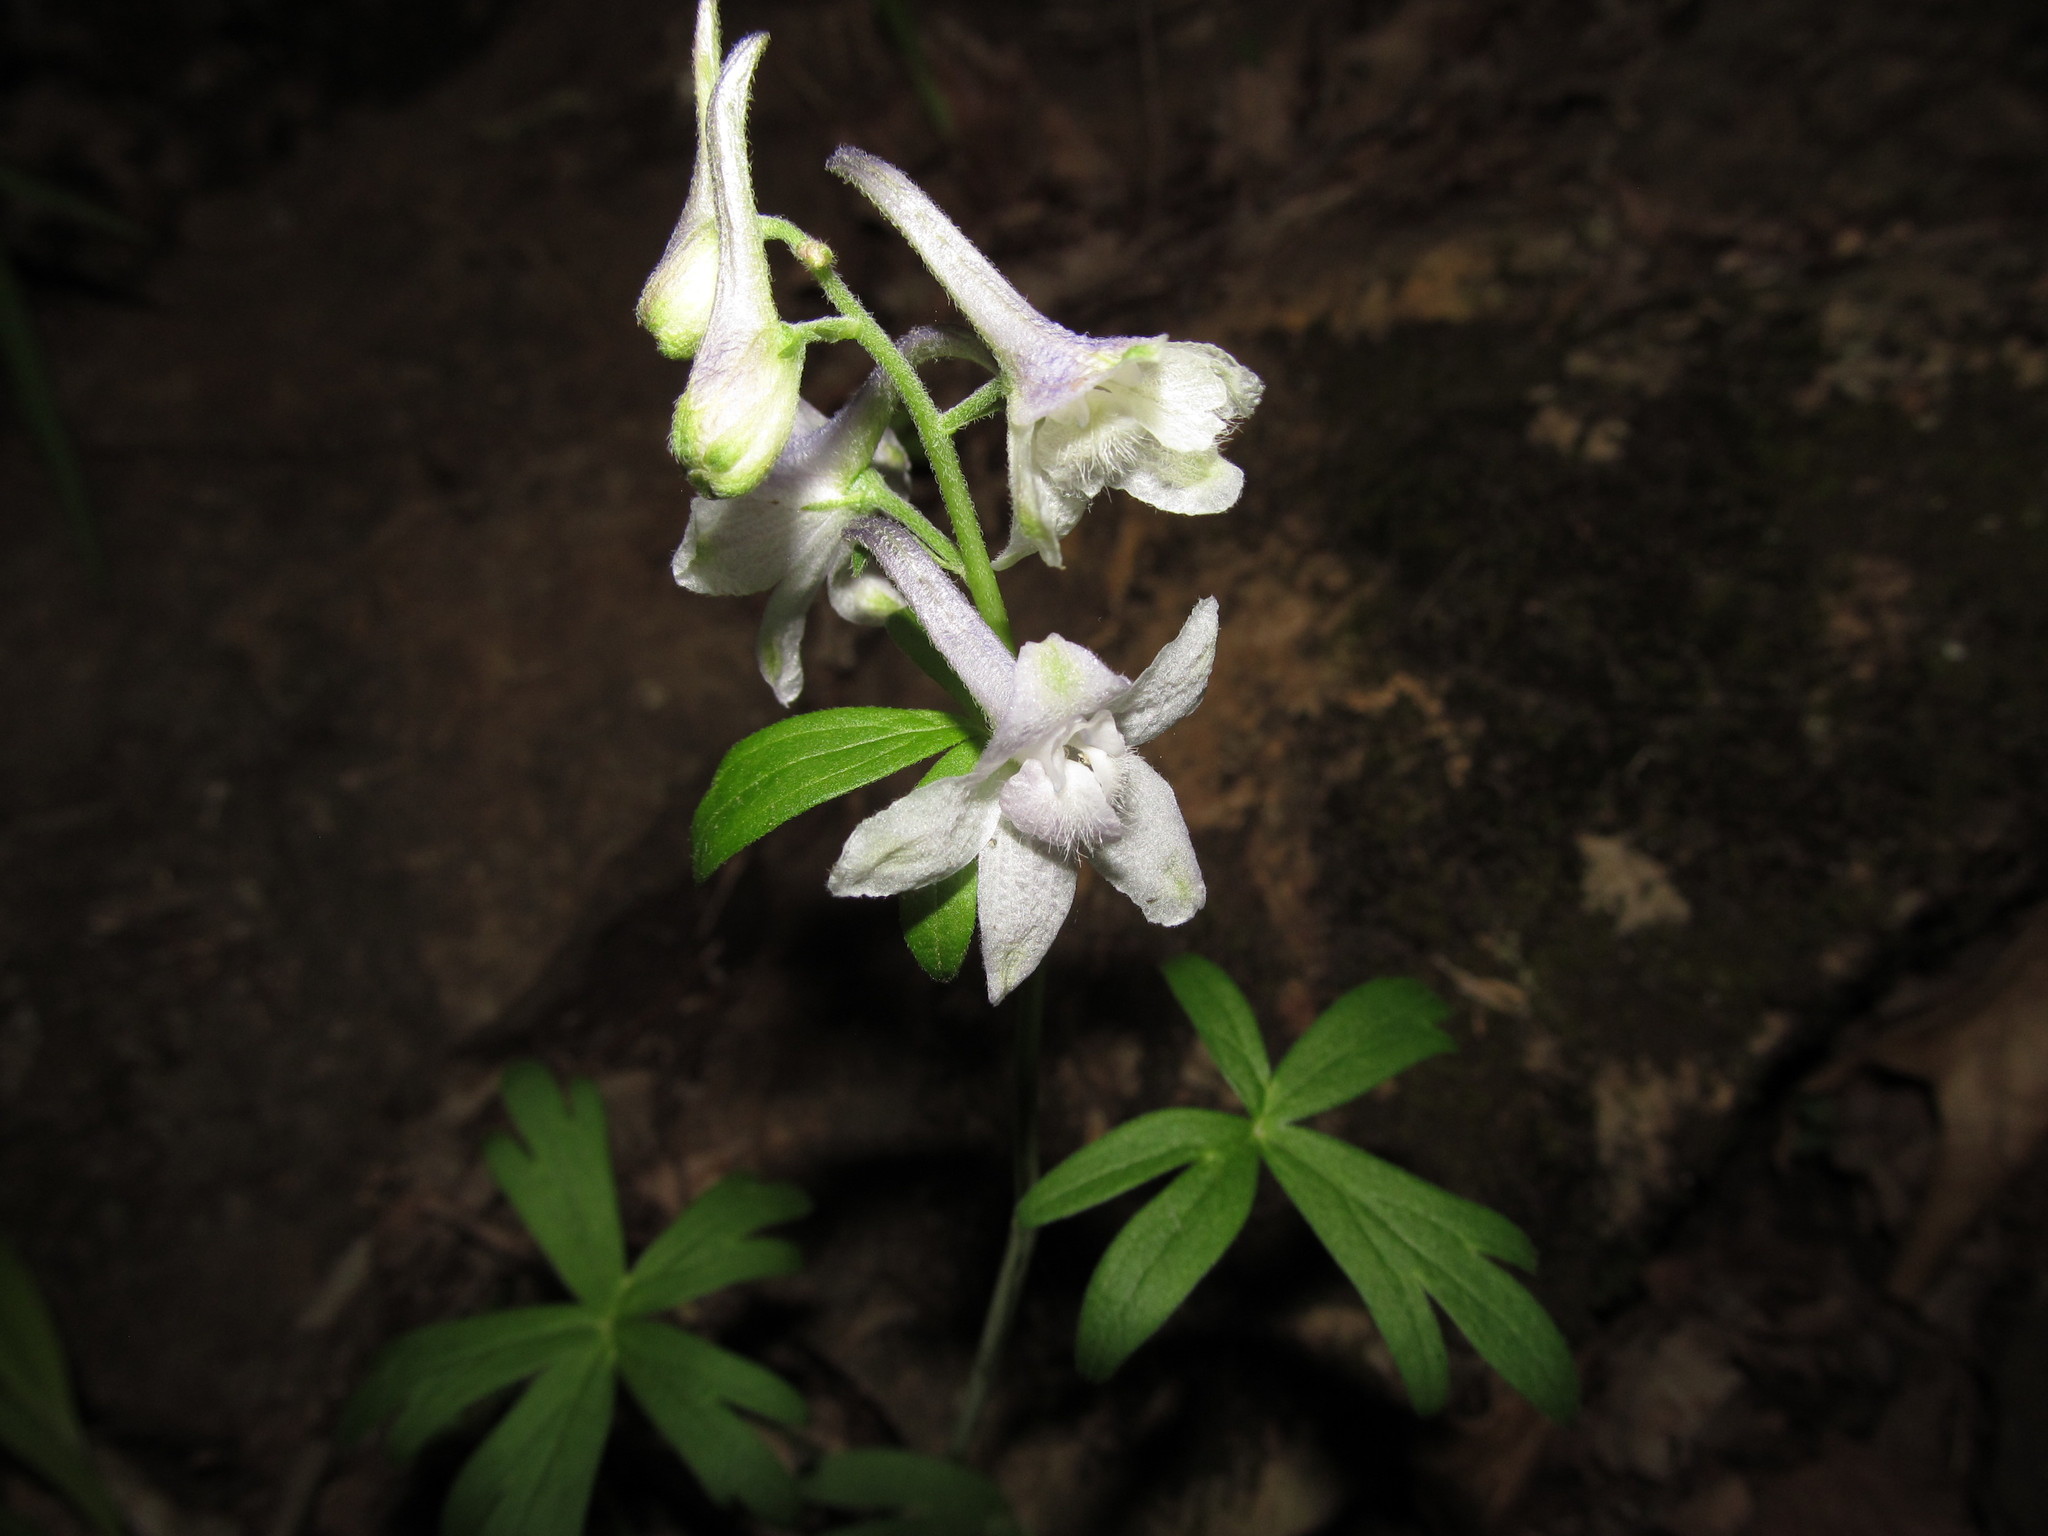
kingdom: Plantae
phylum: Tracheophyta
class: Magnoliopsida
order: Ranunculales
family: Ranunculaceae
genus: Delphinium
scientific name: Delphinium tricorne
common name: Dwarf larkspur
